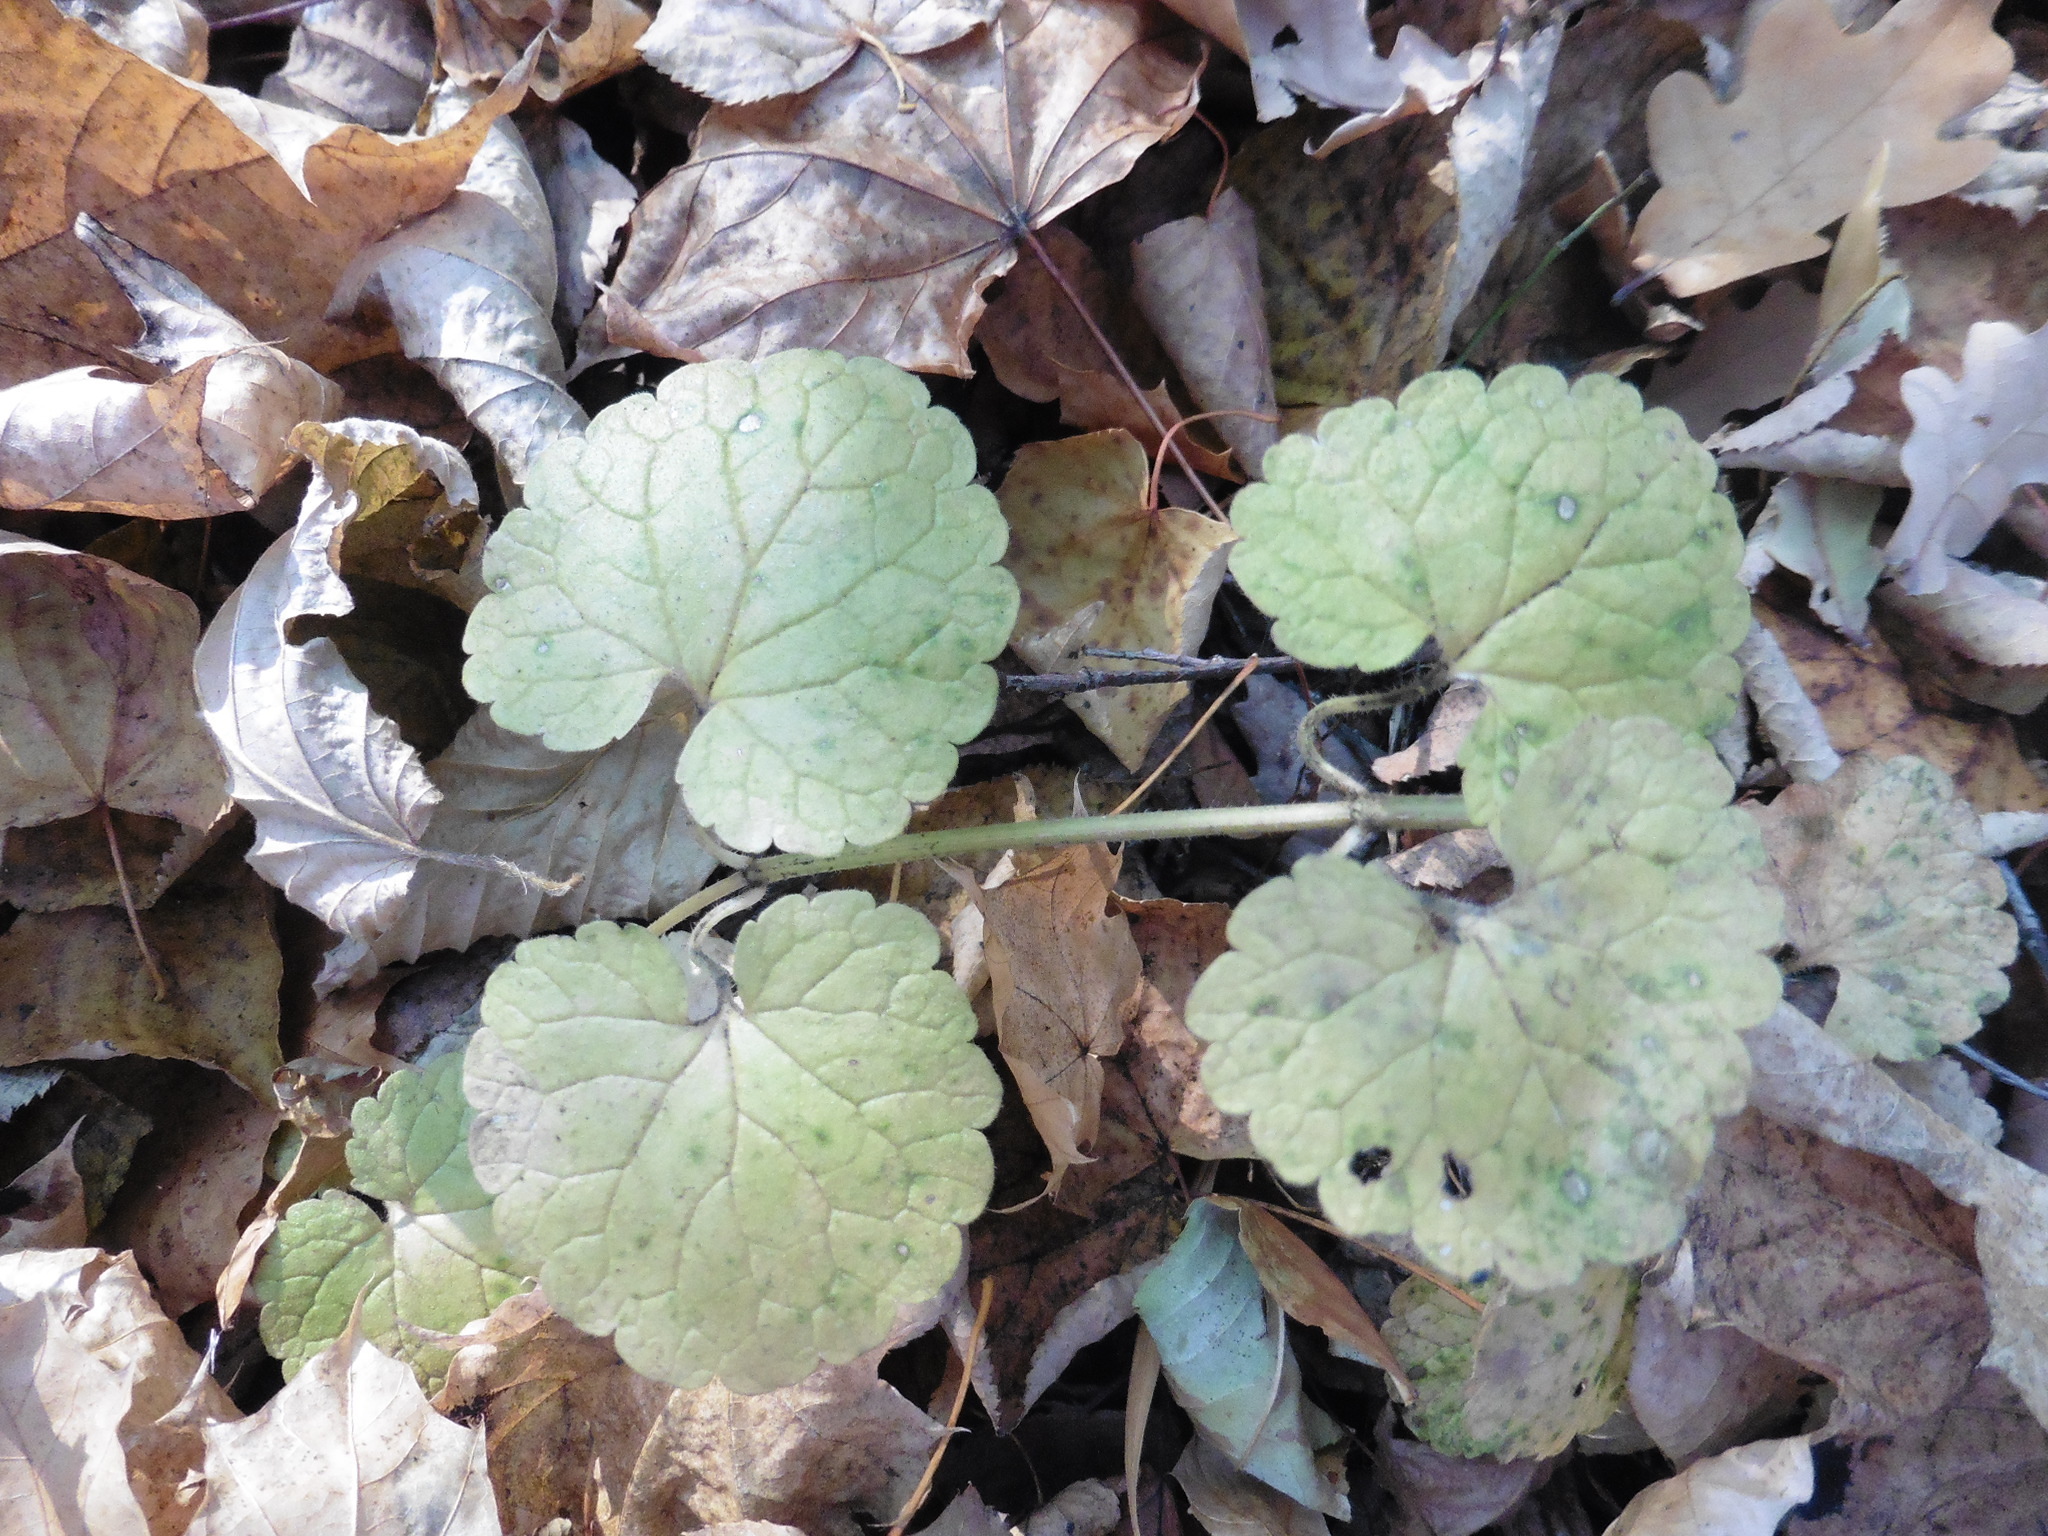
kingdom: Plantae
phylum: Tracheophyta
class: Magnoliopsida
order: Lamiales
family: Lamiaceae
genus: Glechoma
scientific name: Glechoma hederacea
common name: Ground ivy
